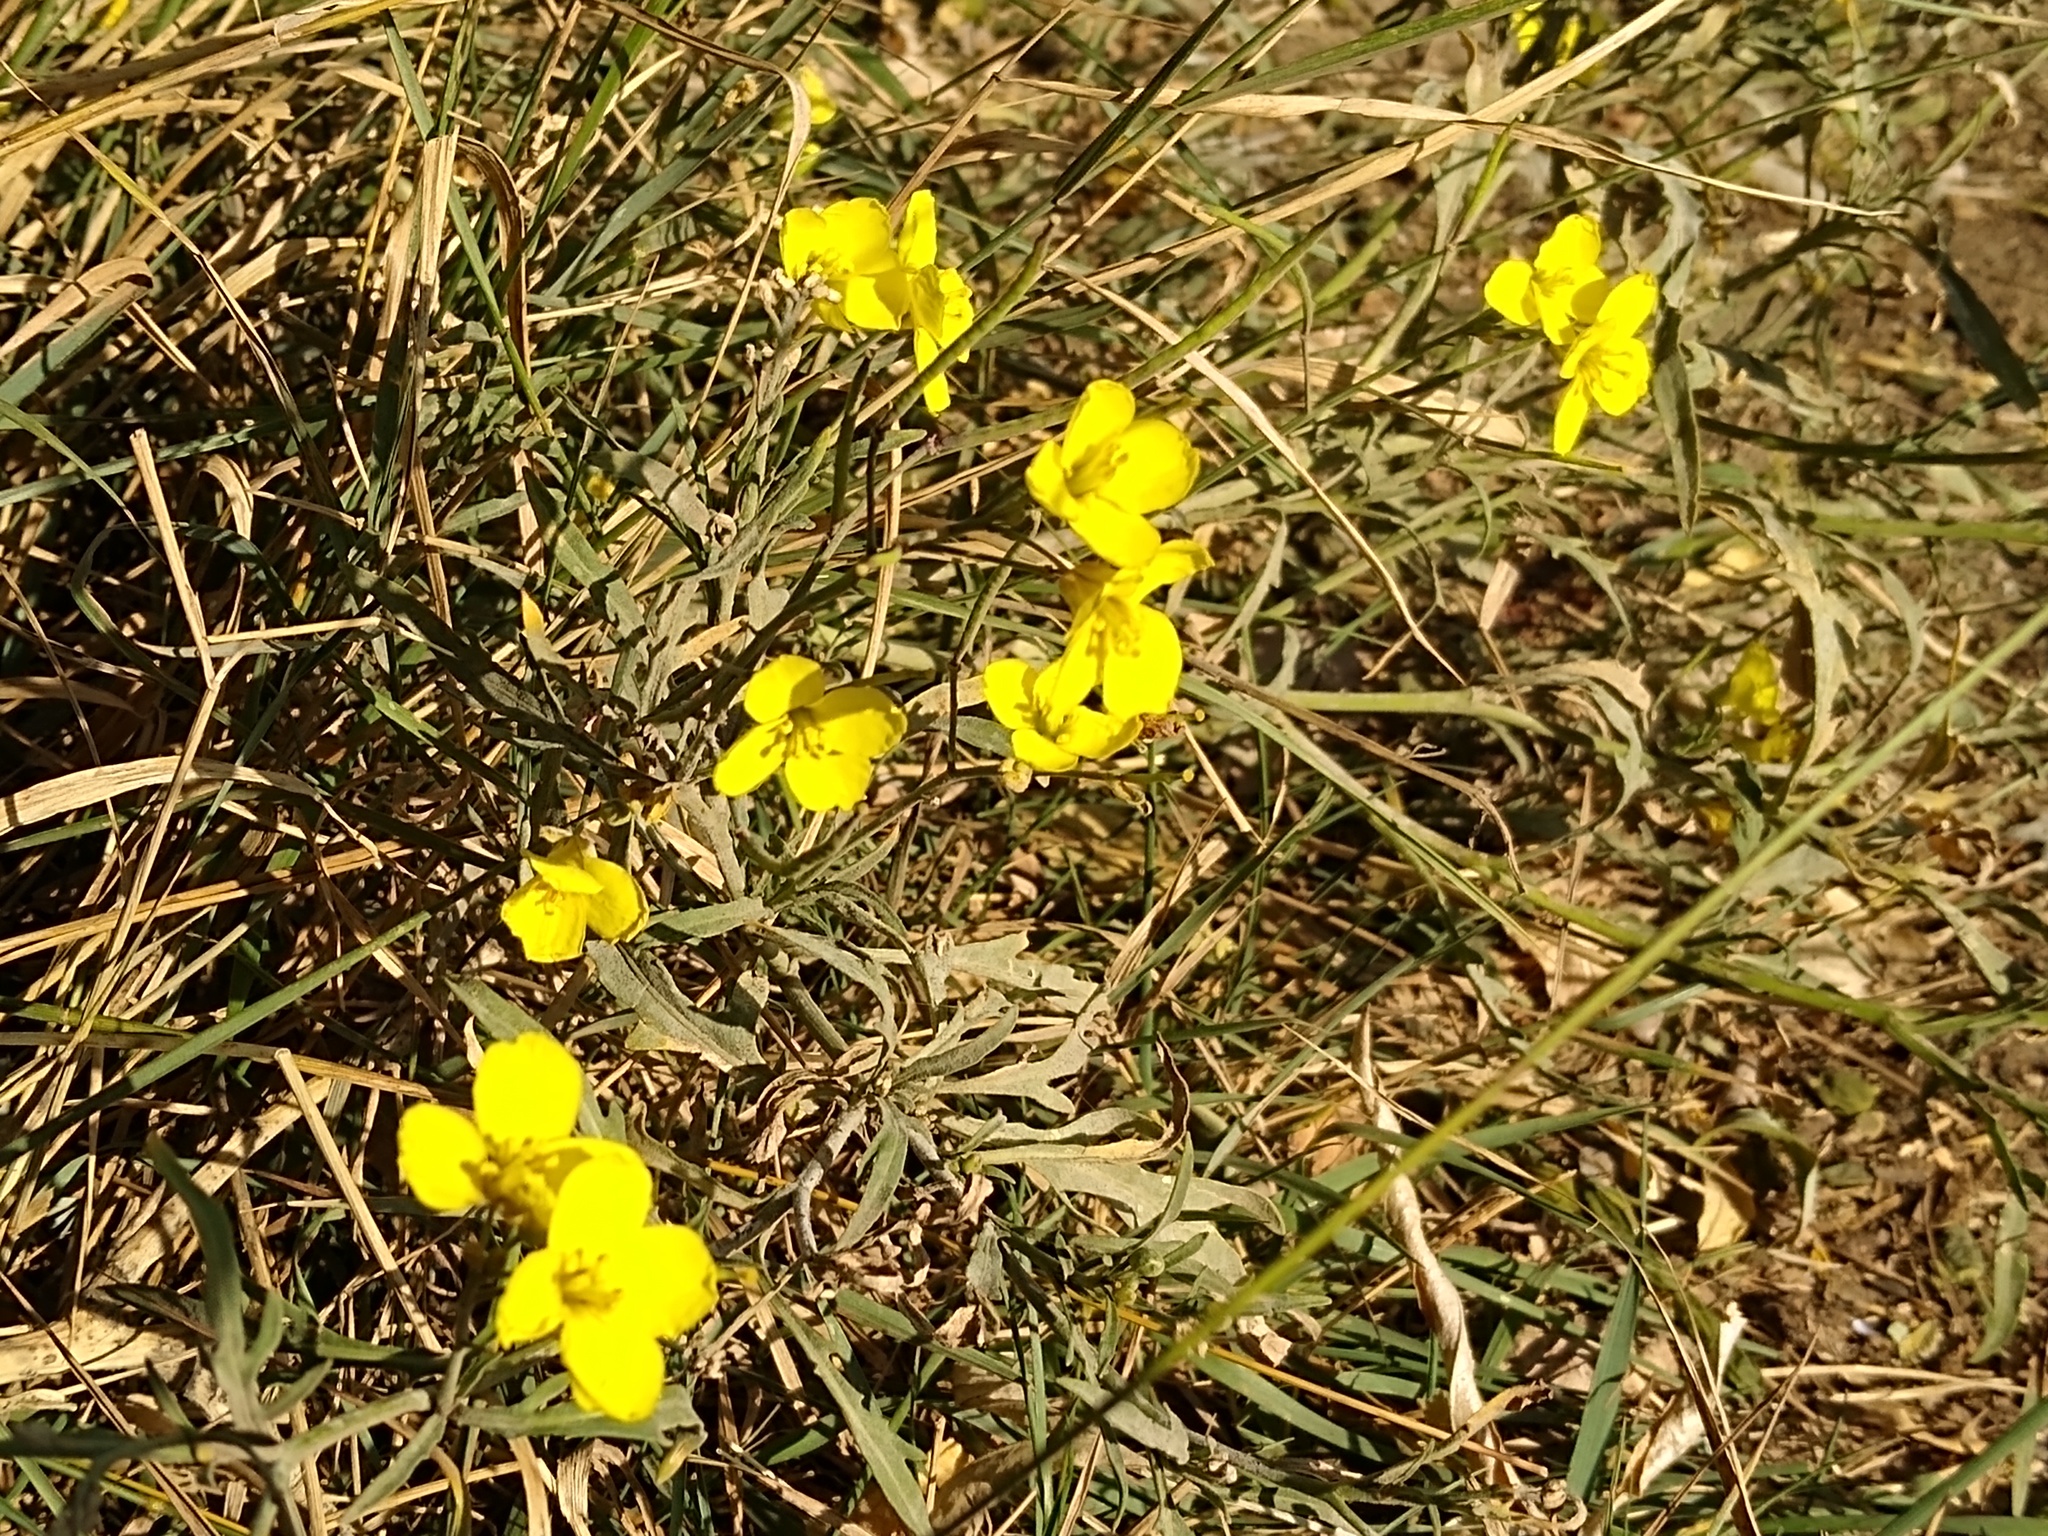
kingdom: Plantae
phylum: Tracheophyta
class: Magnoliopsida
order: Brassicales
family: Brassicaceae
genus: Diplotaxis
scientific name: Diplotaxis tenuifolia
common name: Perennial wall-rocket
